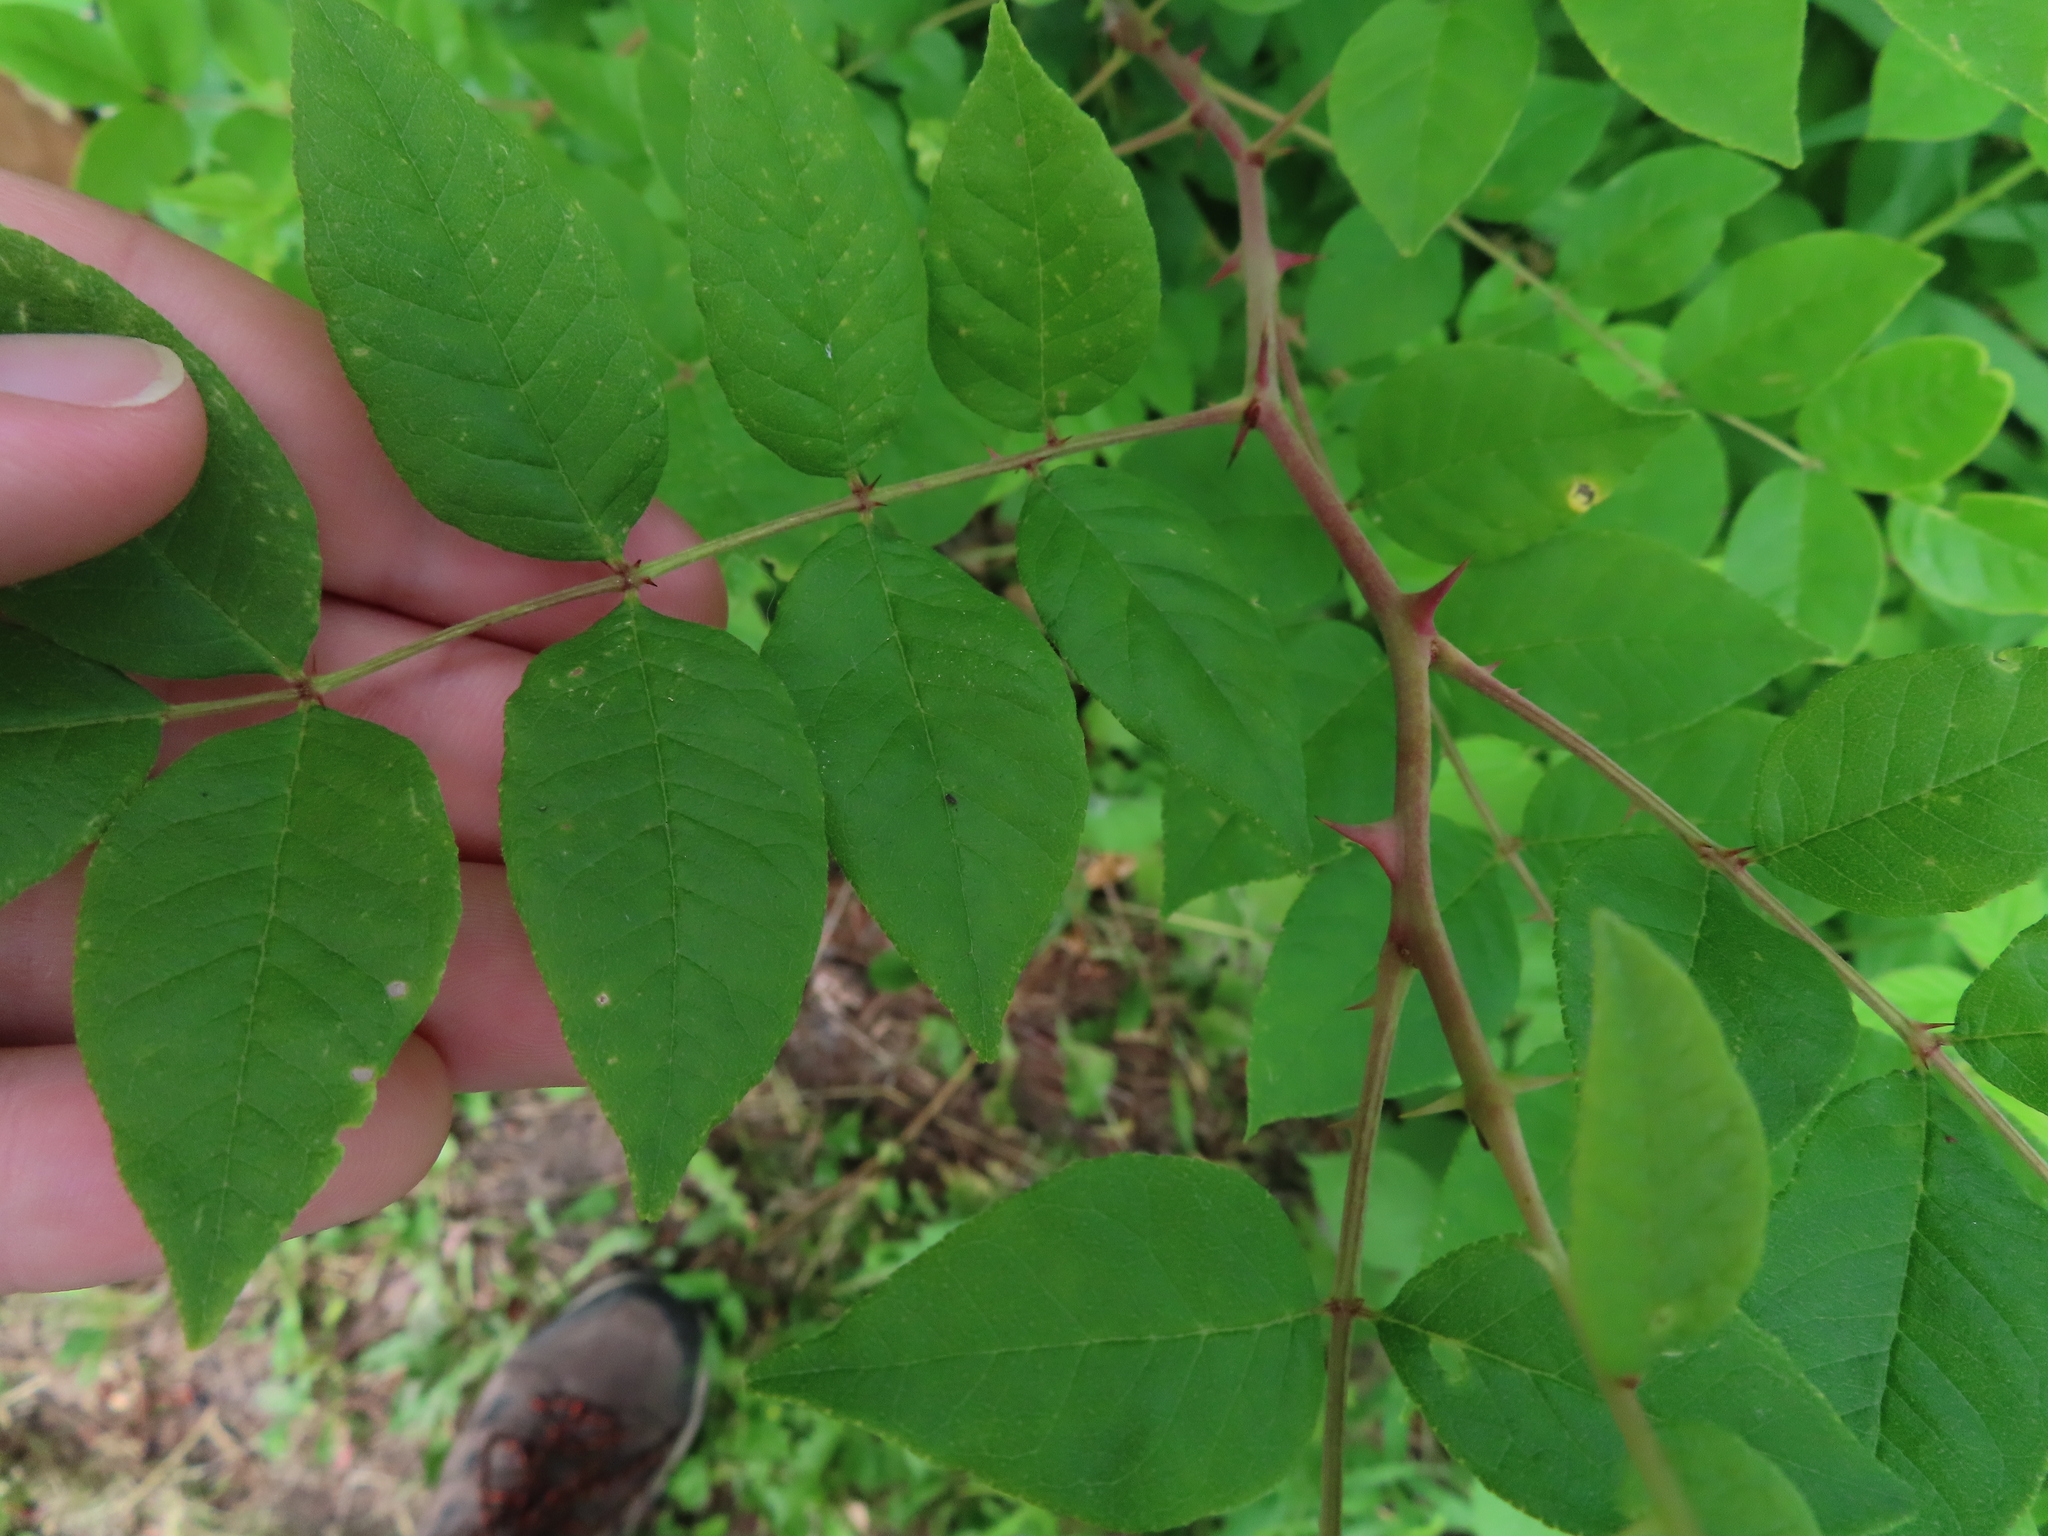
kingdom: Plantae
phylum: Tracheophyta
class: Magnoliopsida
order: Sapindales
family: Rutaceae
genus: Zanthoxylum
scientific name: Zanthoxylum americanum
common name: Northern prickly-ash
